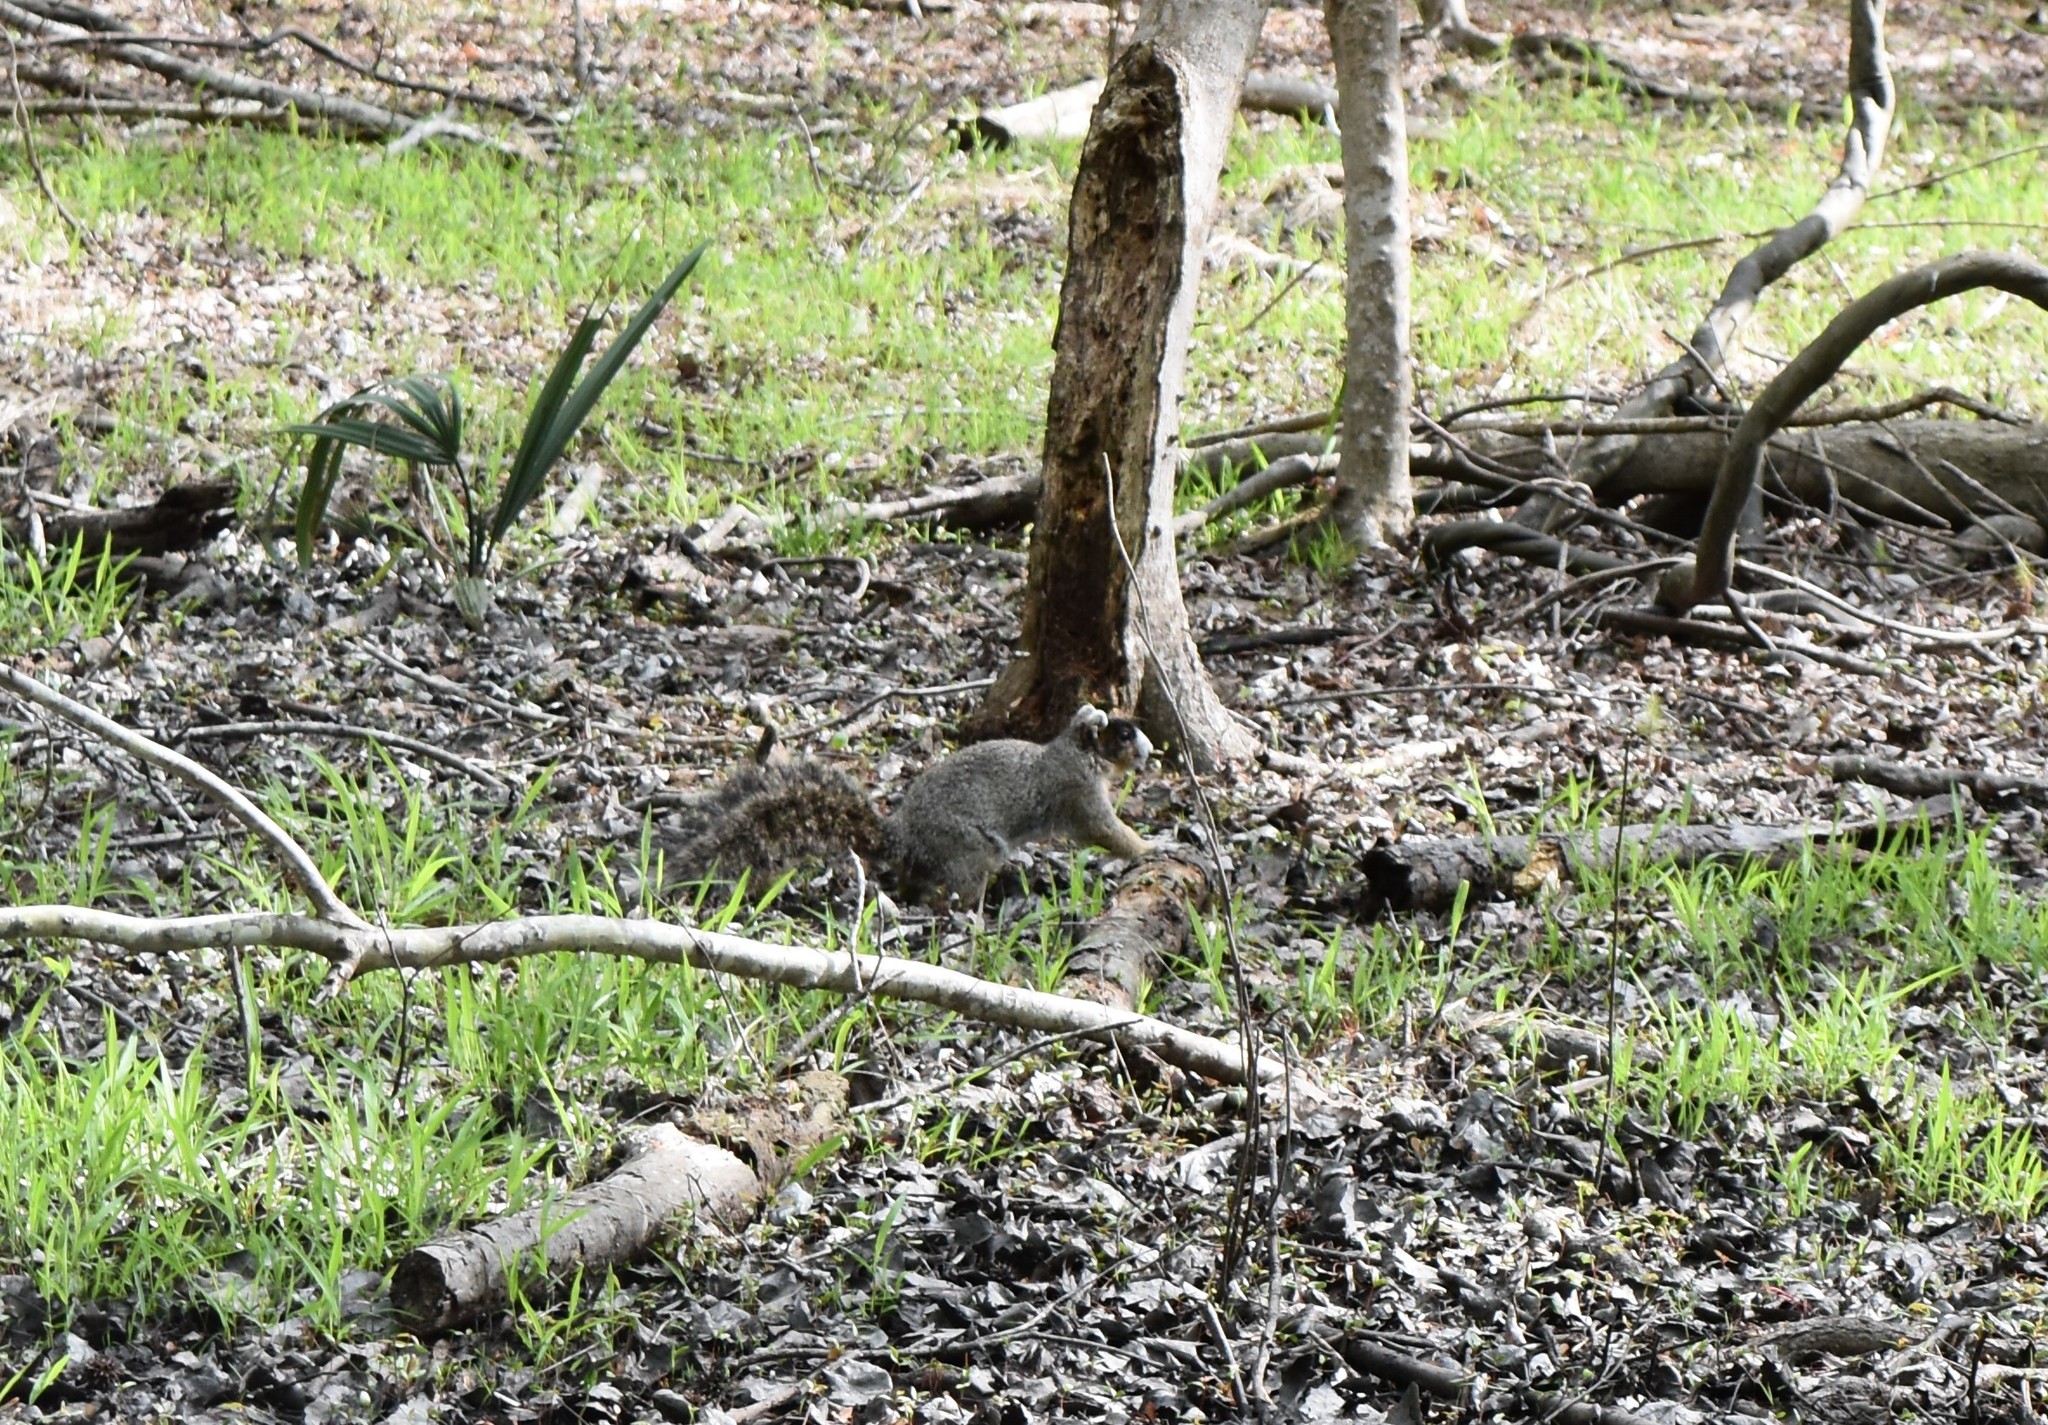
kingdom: Animalia
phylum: Chordata
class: Mammalia
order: Rodentia
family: Sciuridae
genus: Sciurus
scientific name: Sciurus niger
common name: Fox squirrel
